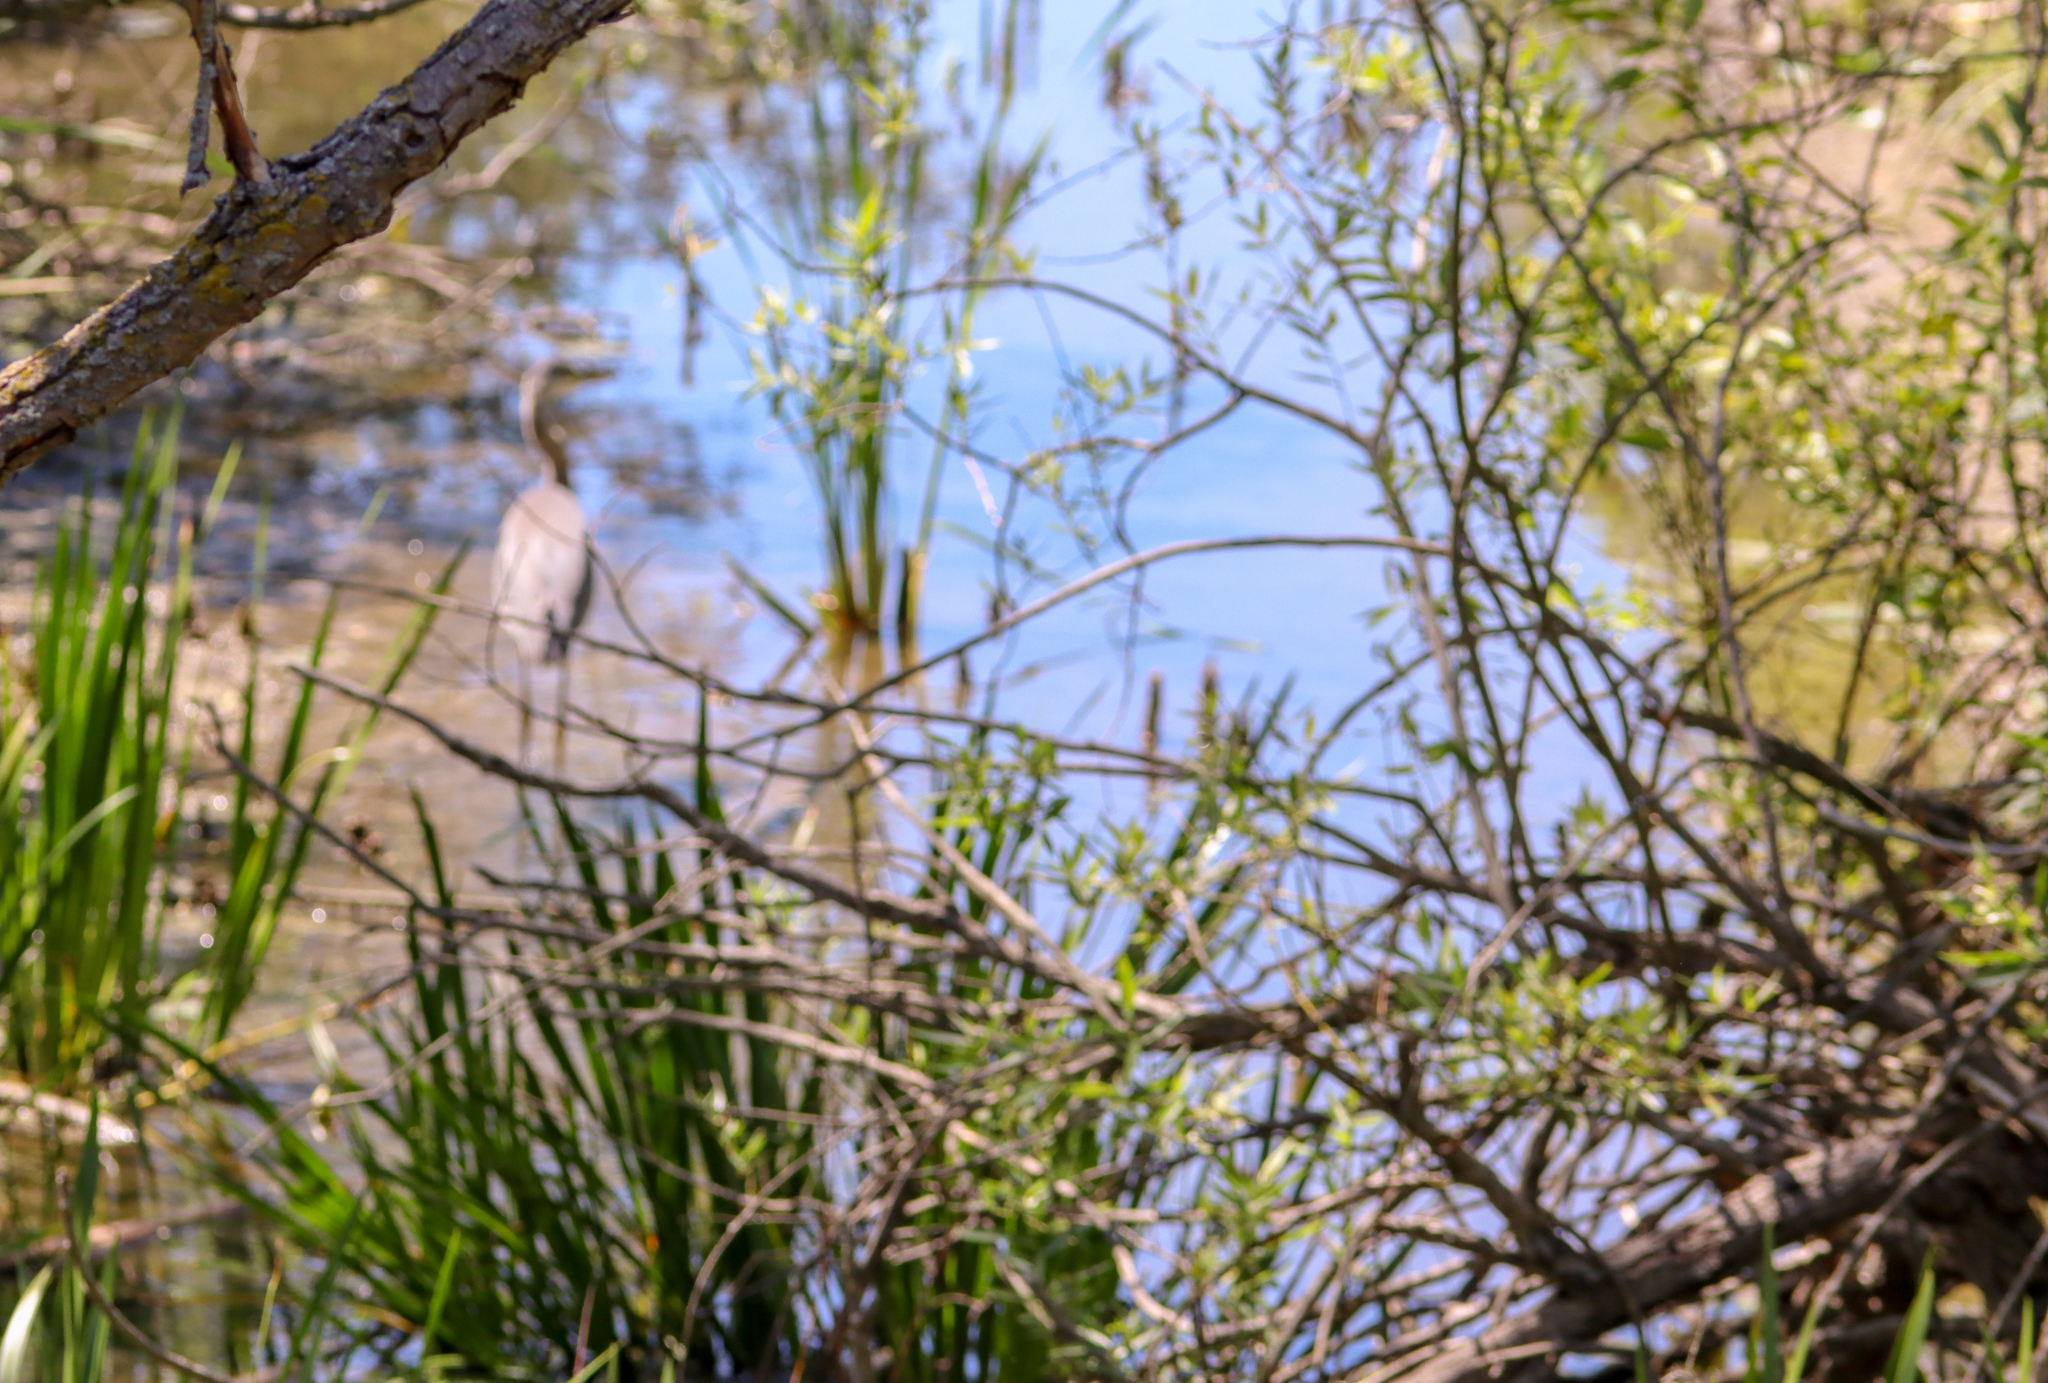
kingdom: Animalia
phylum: Chordata
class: Aves
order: Pelecaniformes
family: Ardeidae
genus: Ardea
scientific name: Ardea herodias
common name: Great blue heron
